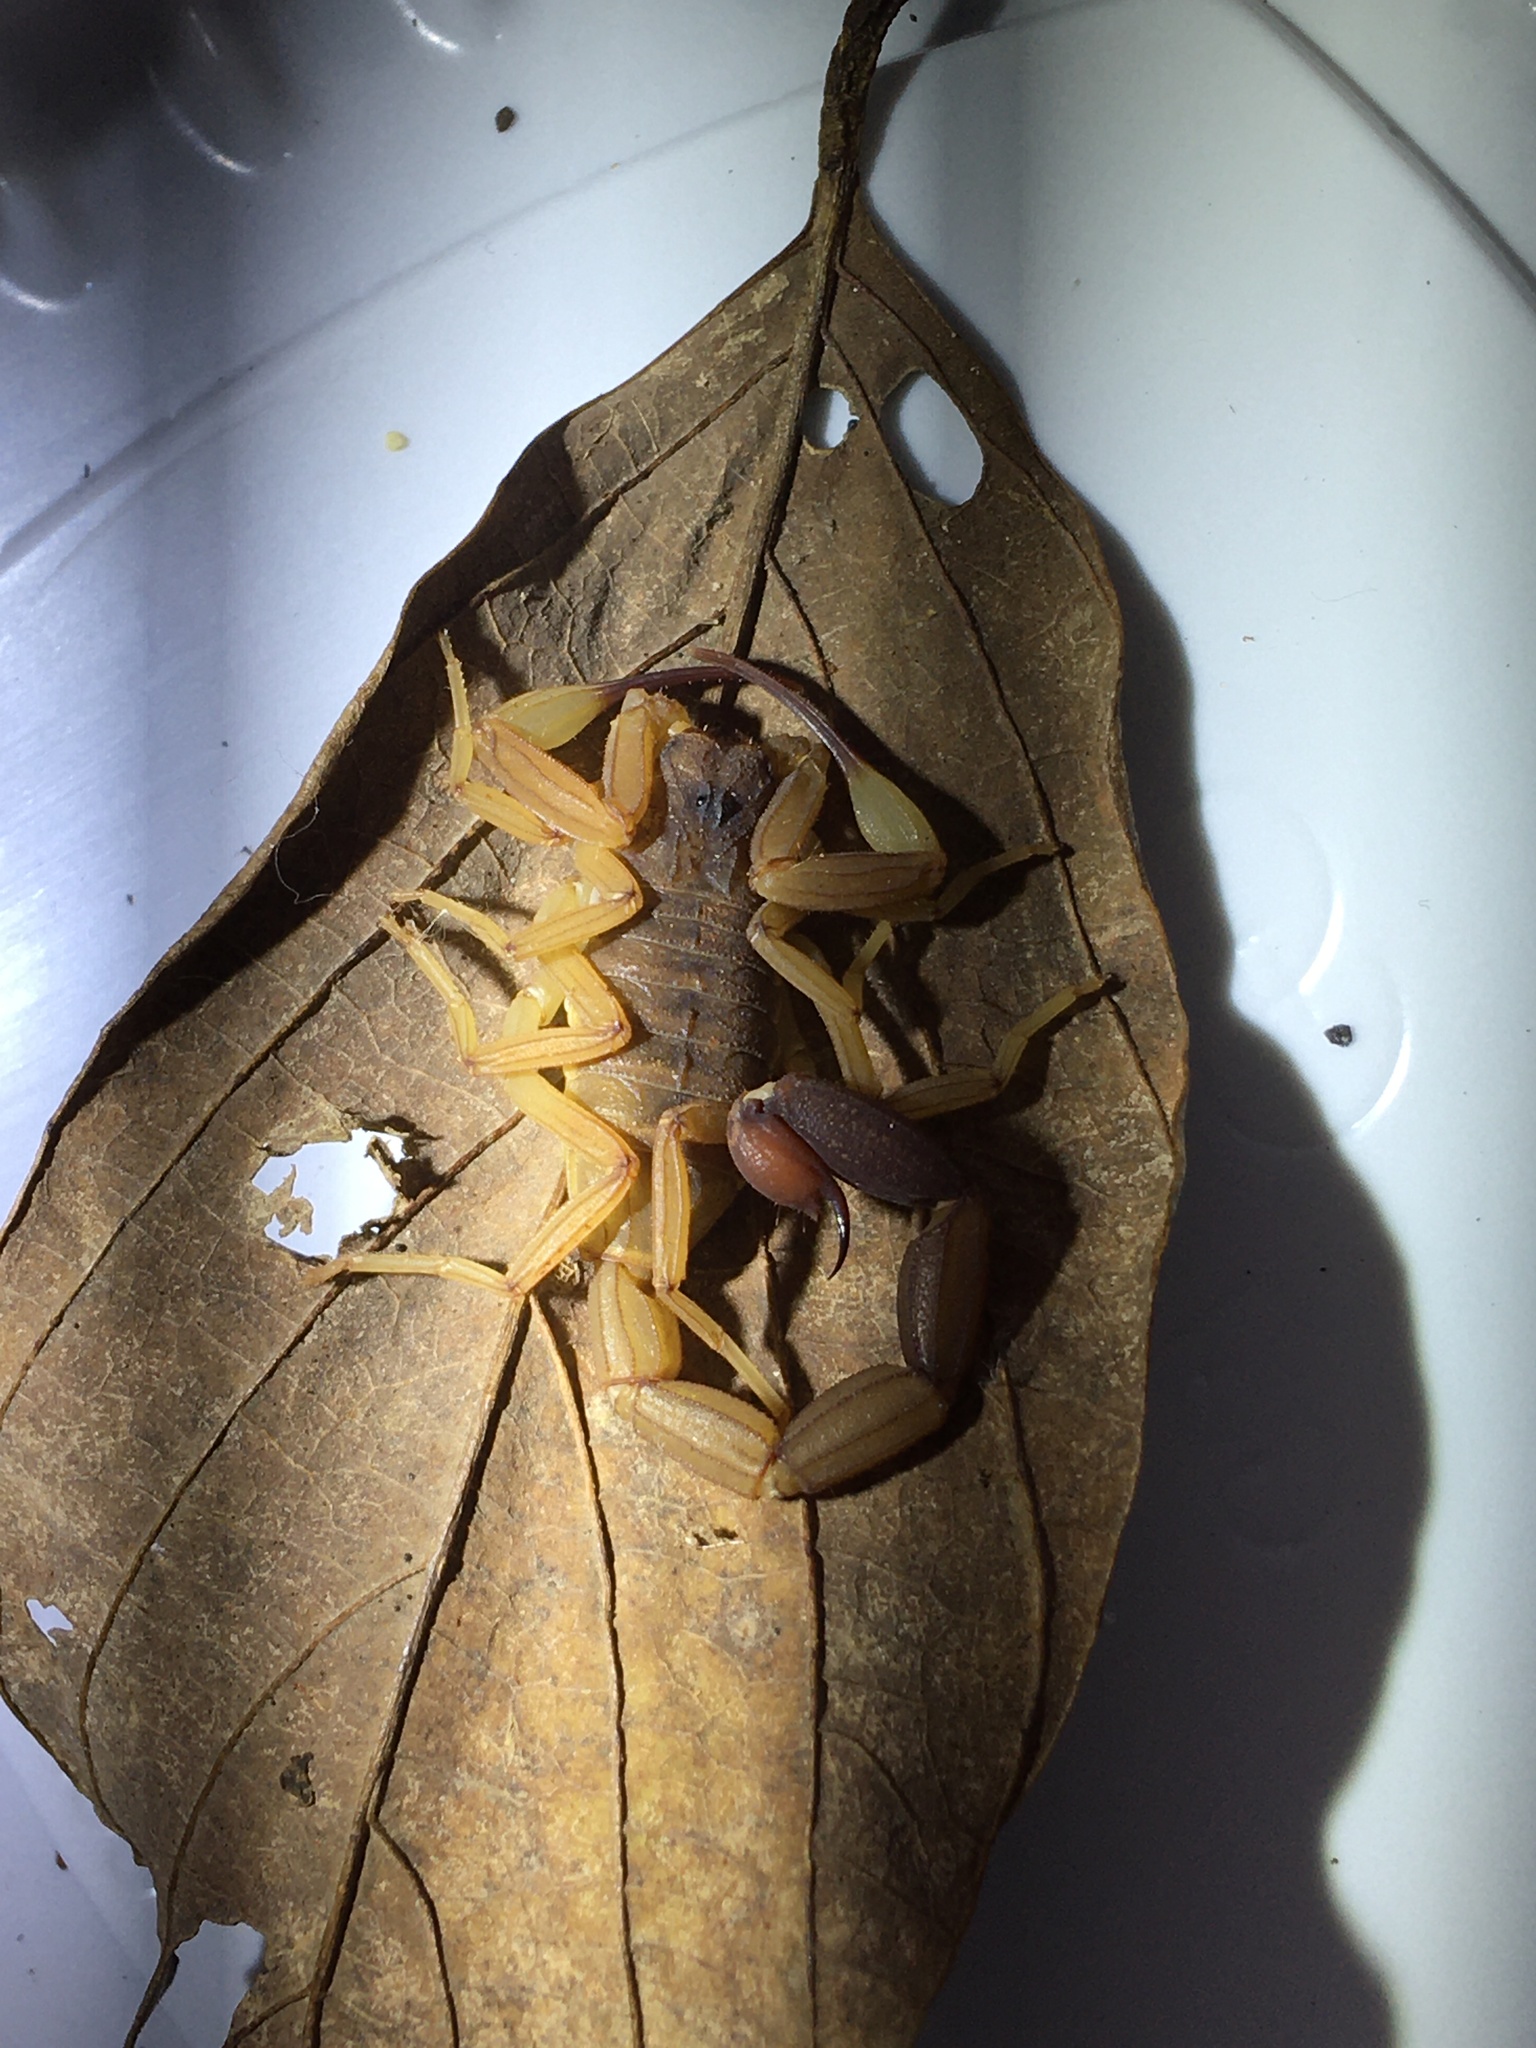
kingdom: Animalia
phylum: Arthropoda
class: Arachnida
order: Scorpiones
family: Buthidae
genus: Tityus
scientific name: Tityus confluens
